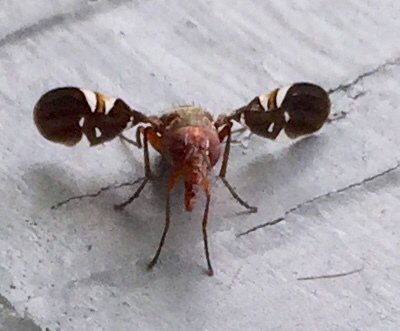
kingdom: Animalia
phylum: Arthropoda
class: Insecta
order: Diptera
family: Ulidiidae
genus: Delphinia
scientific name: Delphinia picta
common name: Common picture-winged fly
